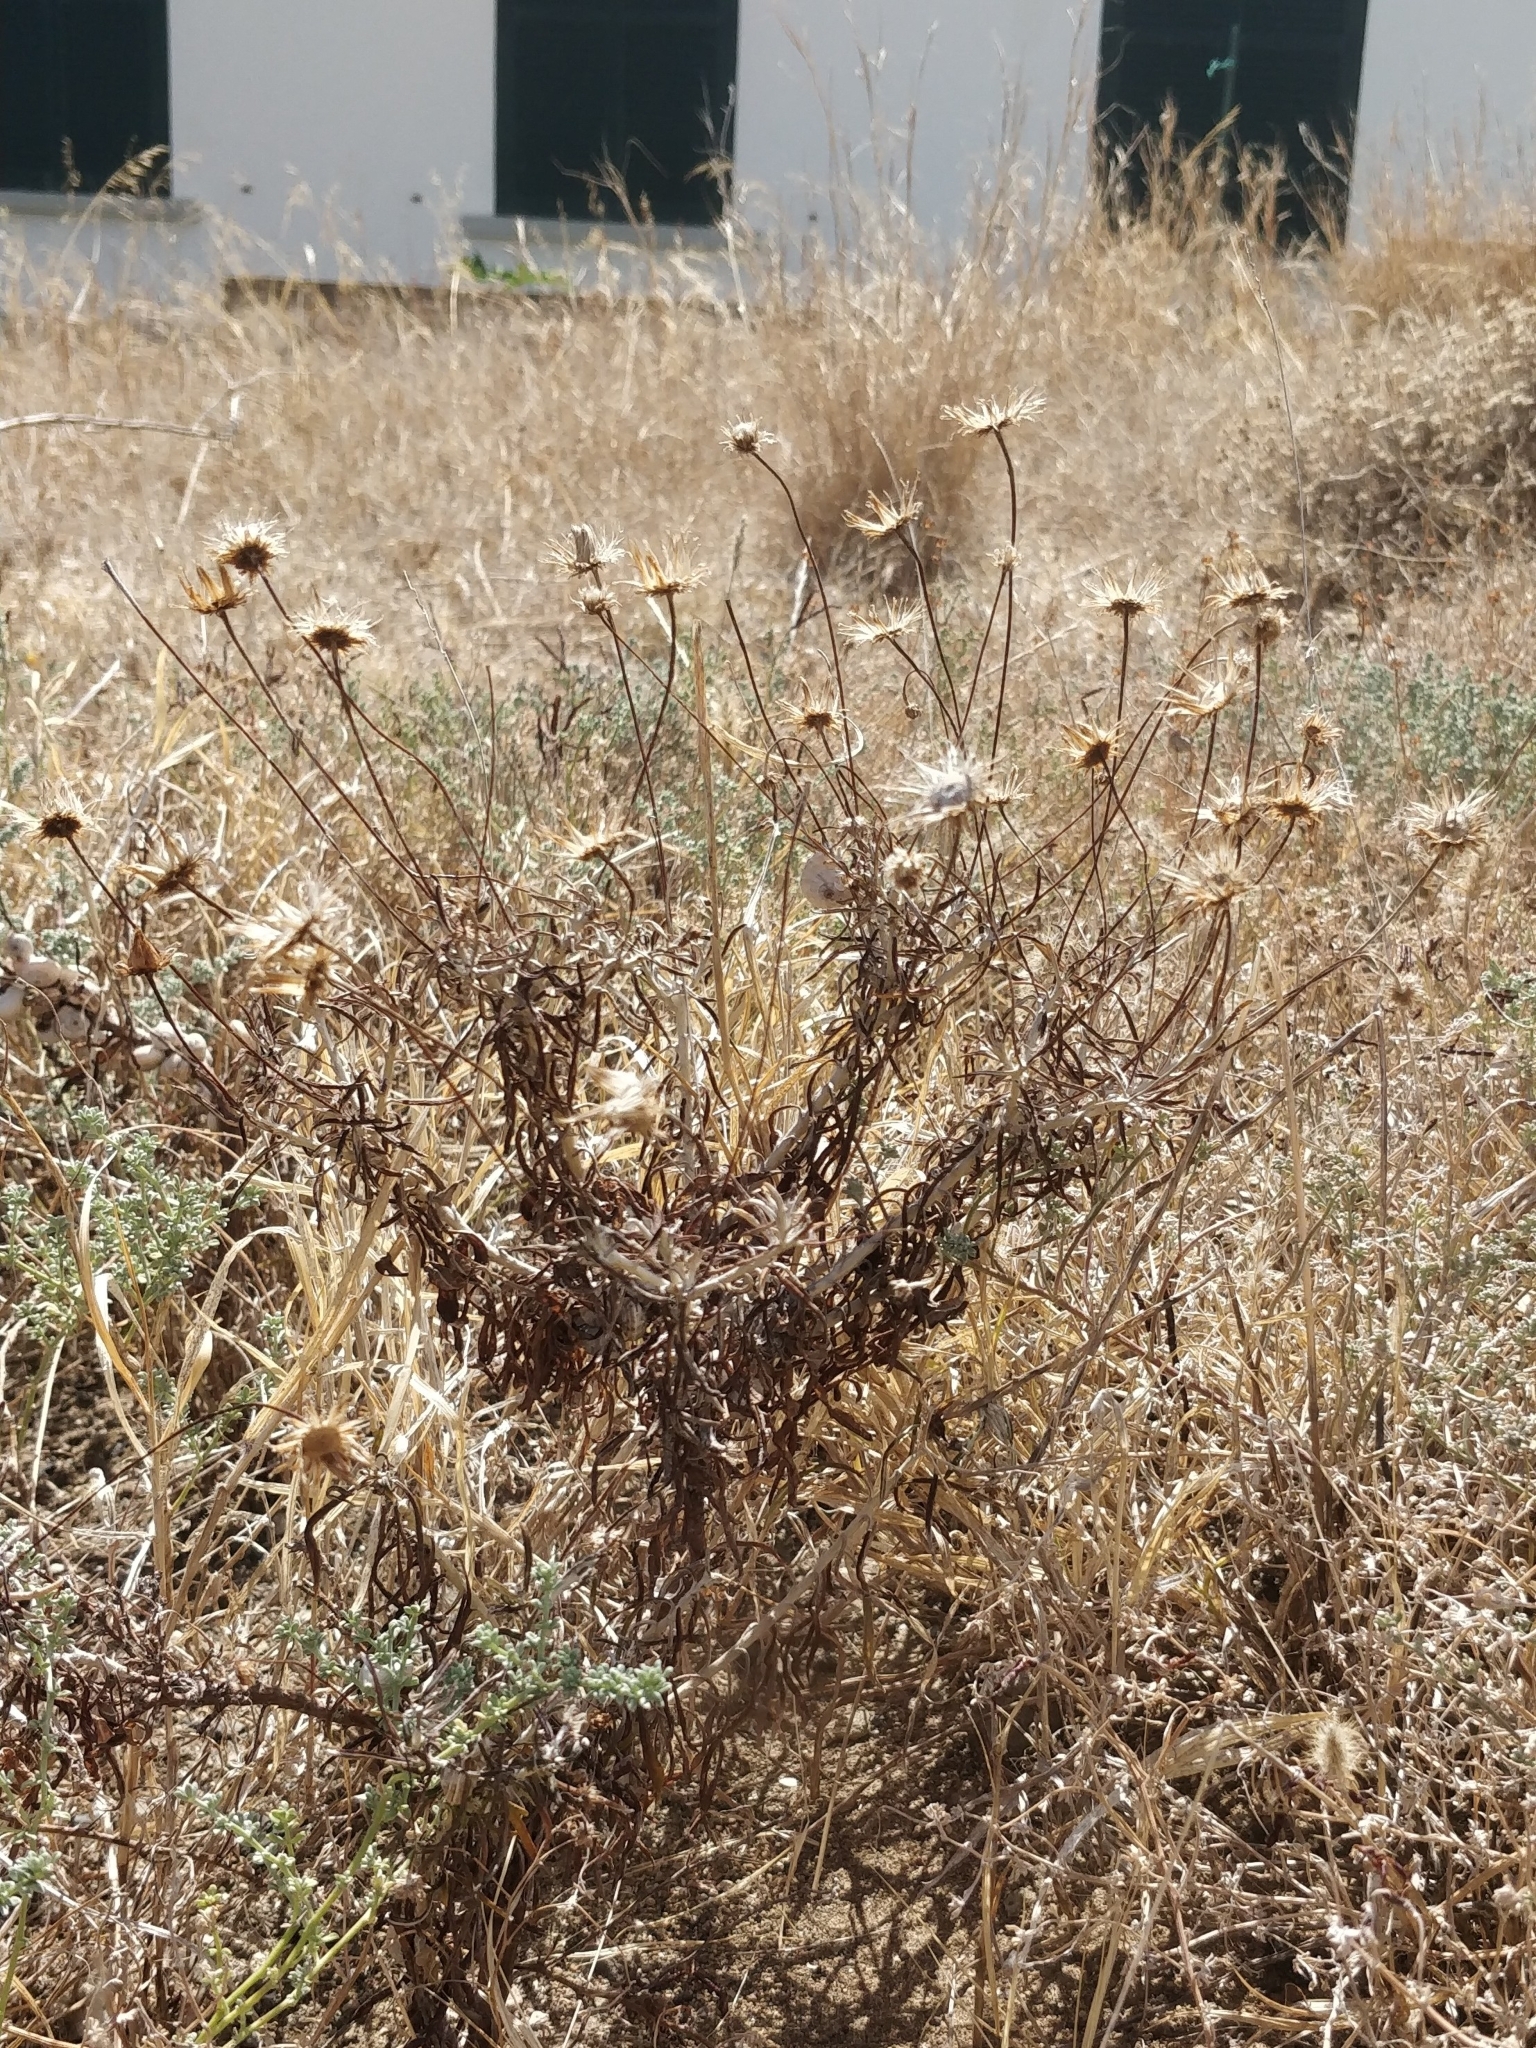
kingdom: Plantae
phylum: Tracheophyta
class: Magnoliopsida
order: Asterales
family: Asteraceae
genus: Phagnalon
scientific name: Phagnalon saxatile
